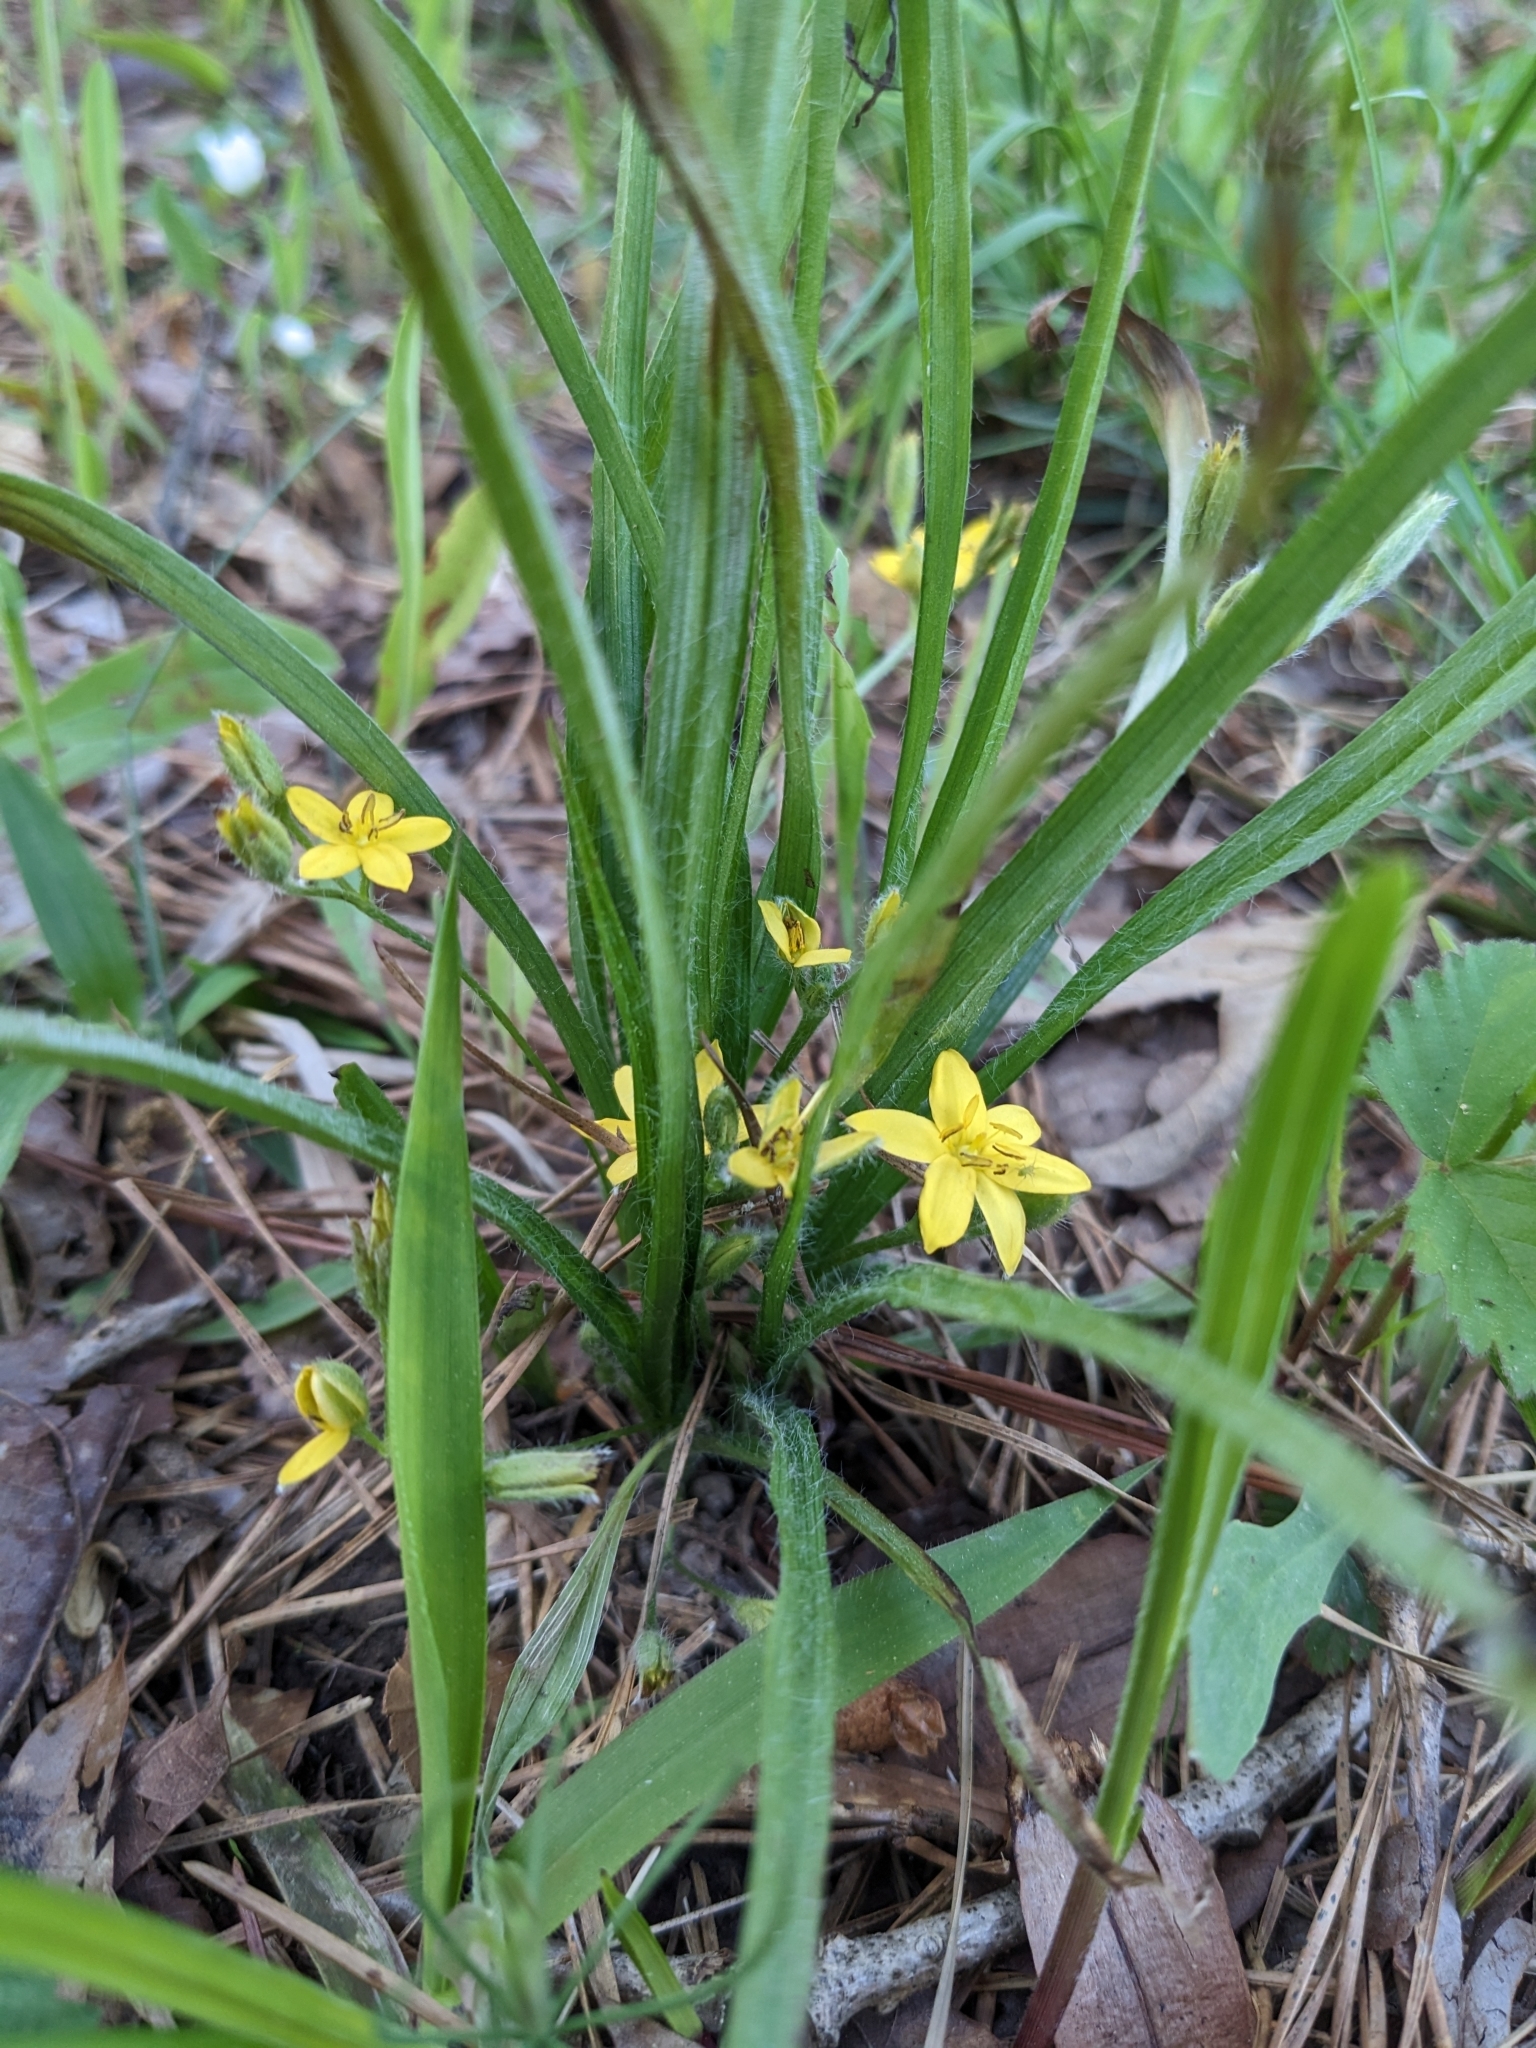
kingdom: Plantae
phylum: Tracheophyta
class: Liliopsida
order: Asparagales
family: Hypoxidaceae
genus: Hypoxis
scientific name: Hypoxis hirsuta
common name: Common goldstar
